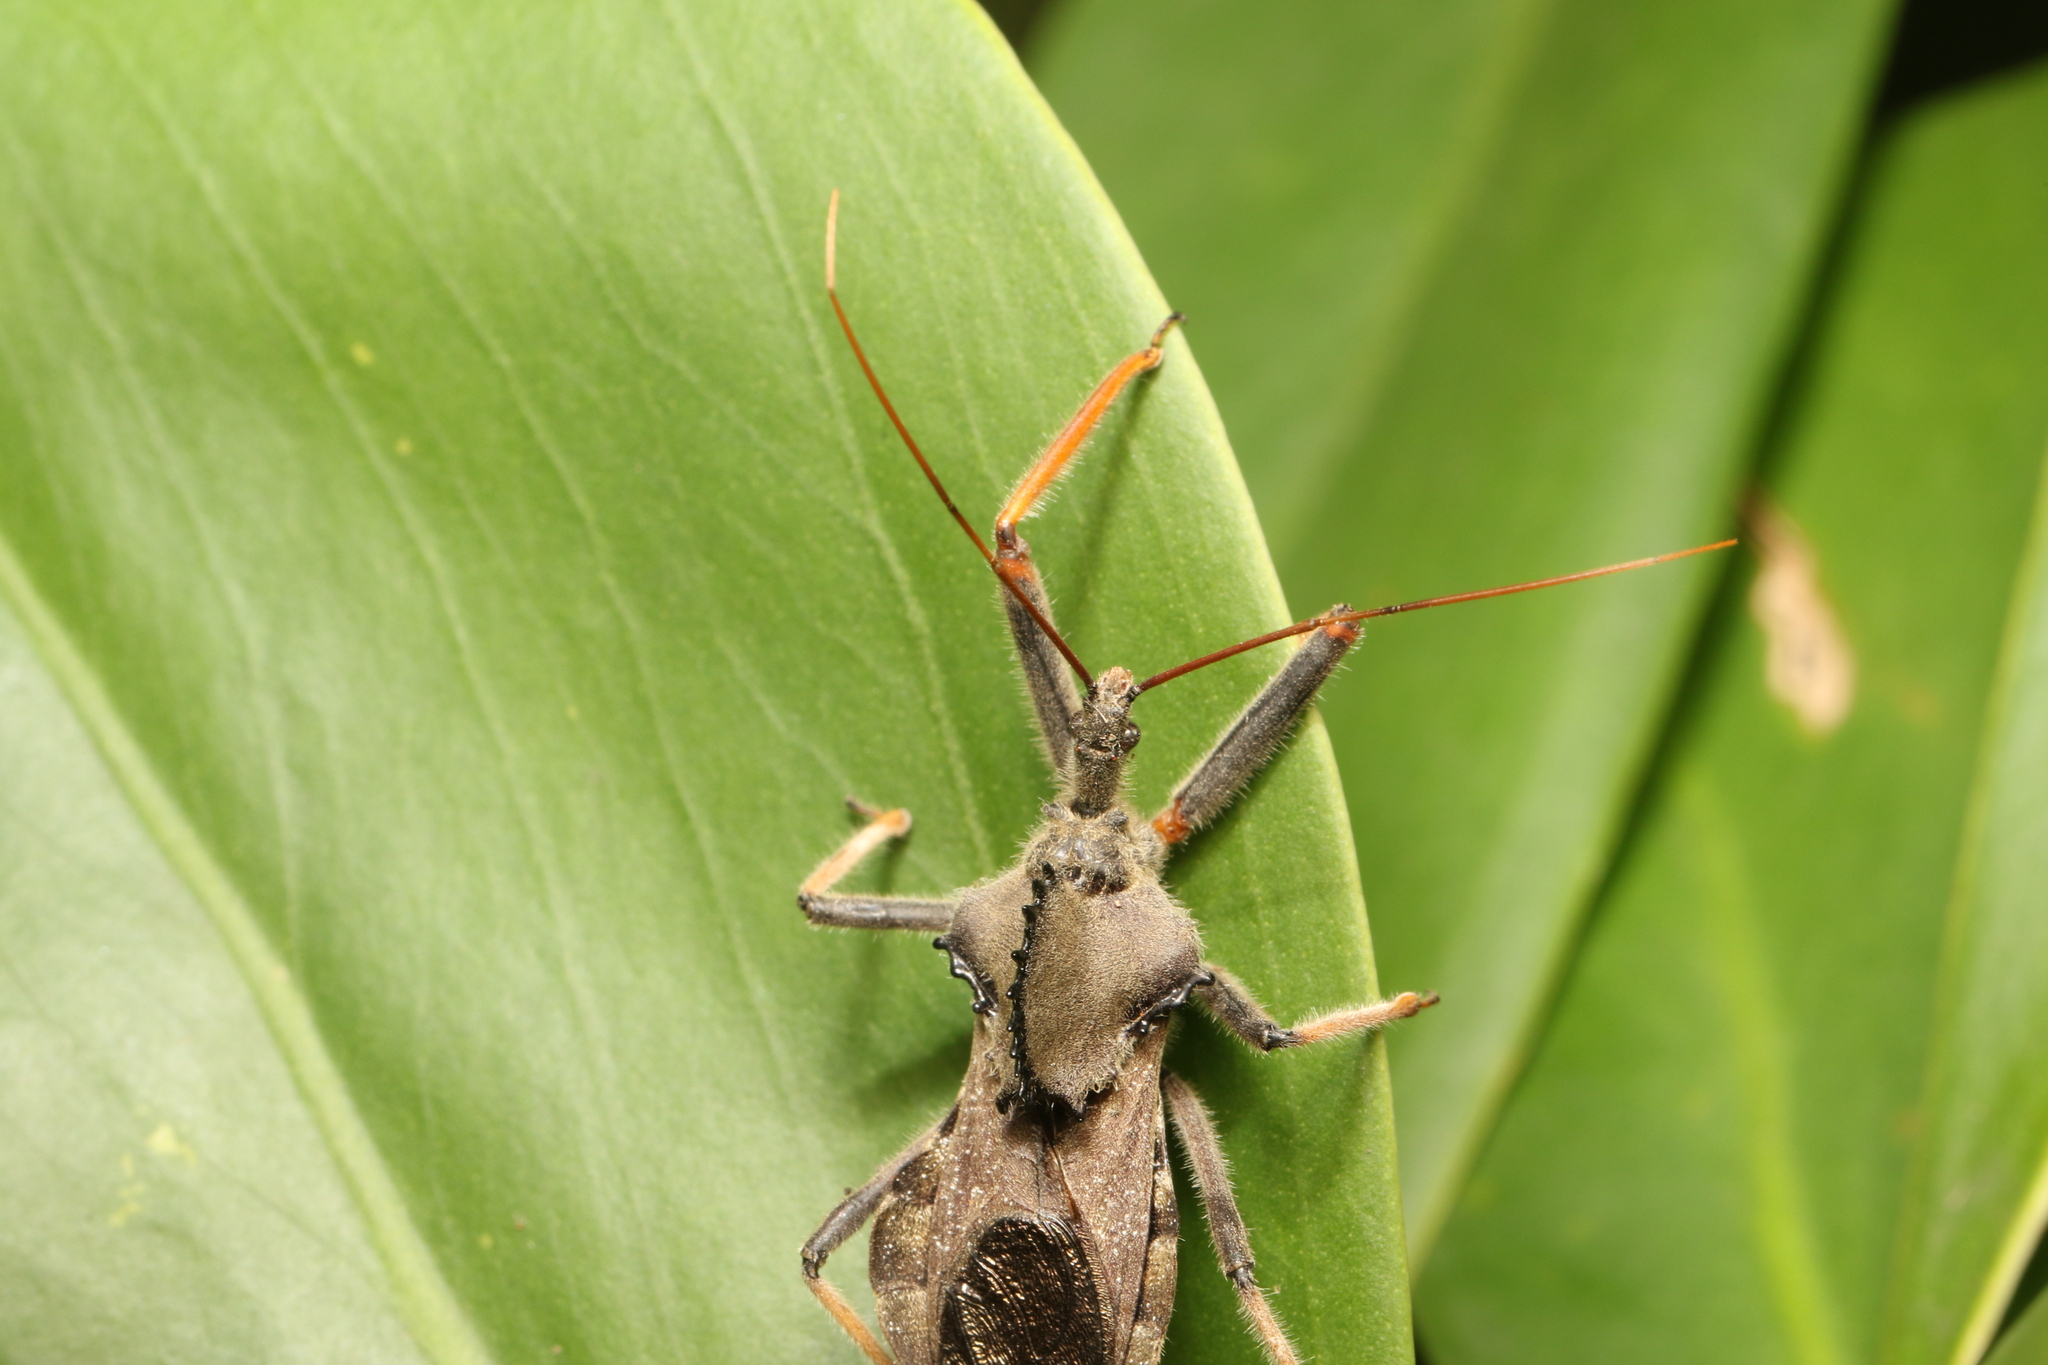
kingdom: Animalia
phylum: Arthropoda
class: Insecta
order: Hemiptera
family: Reduviidae
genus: Arilus
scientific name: Arilus carinatus
